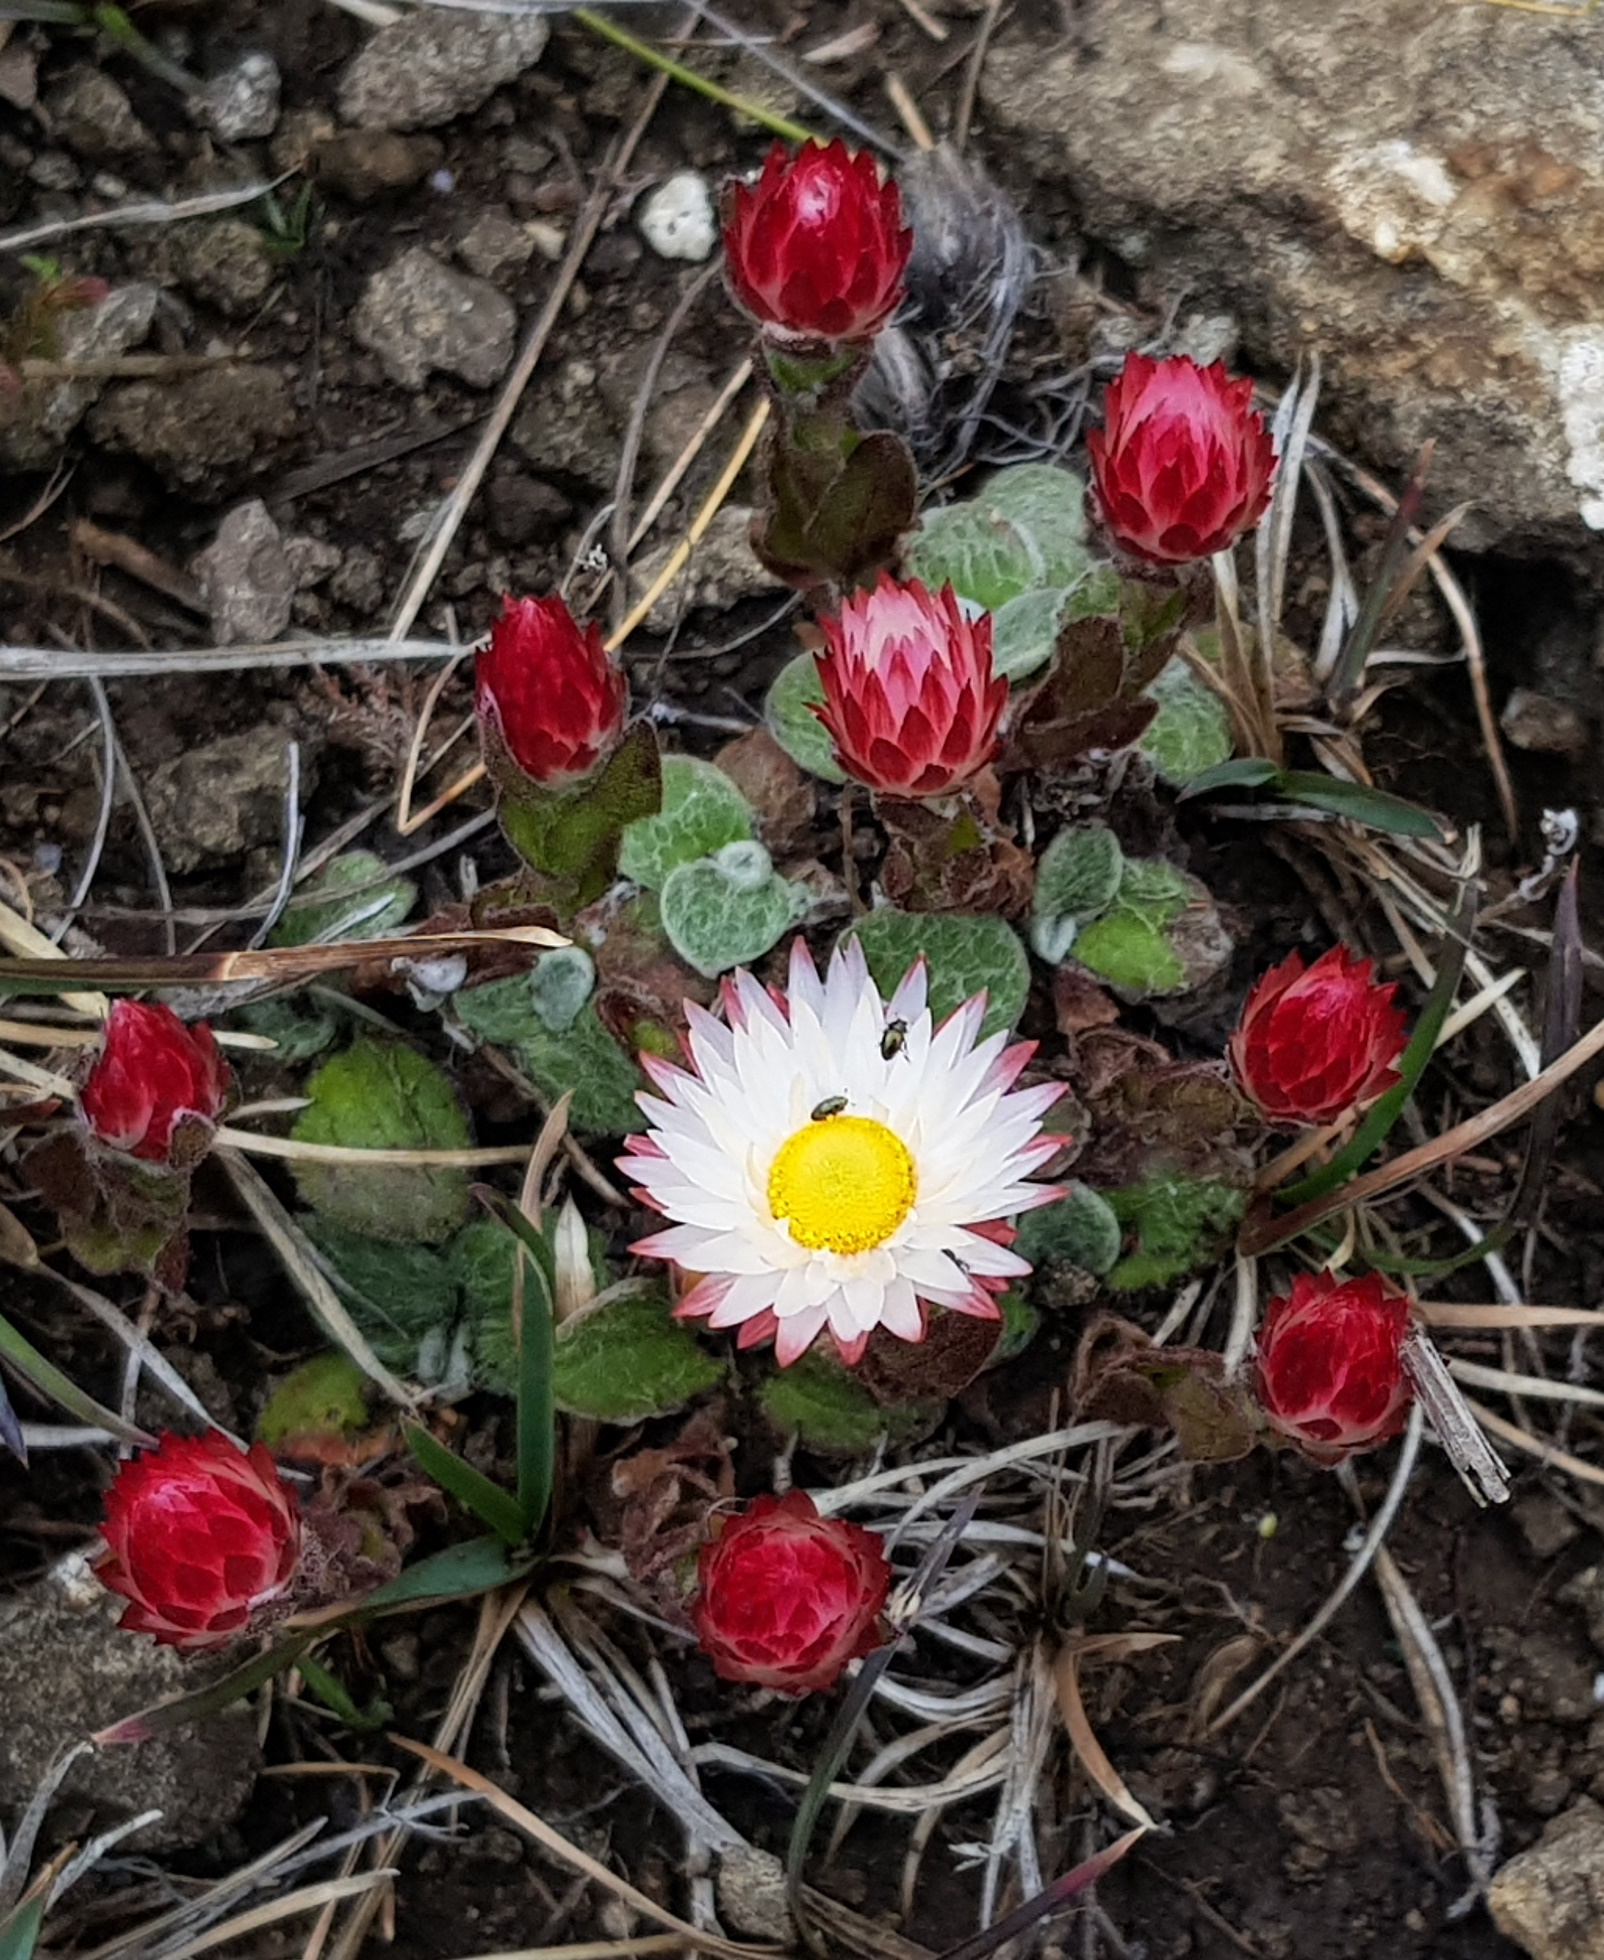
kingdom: Plantae
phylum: Tracheophyta
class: Magnoliopsida
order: Asterales
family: Asteraceae
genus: Helichrysum
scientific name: Helichrysum adenocarpum
